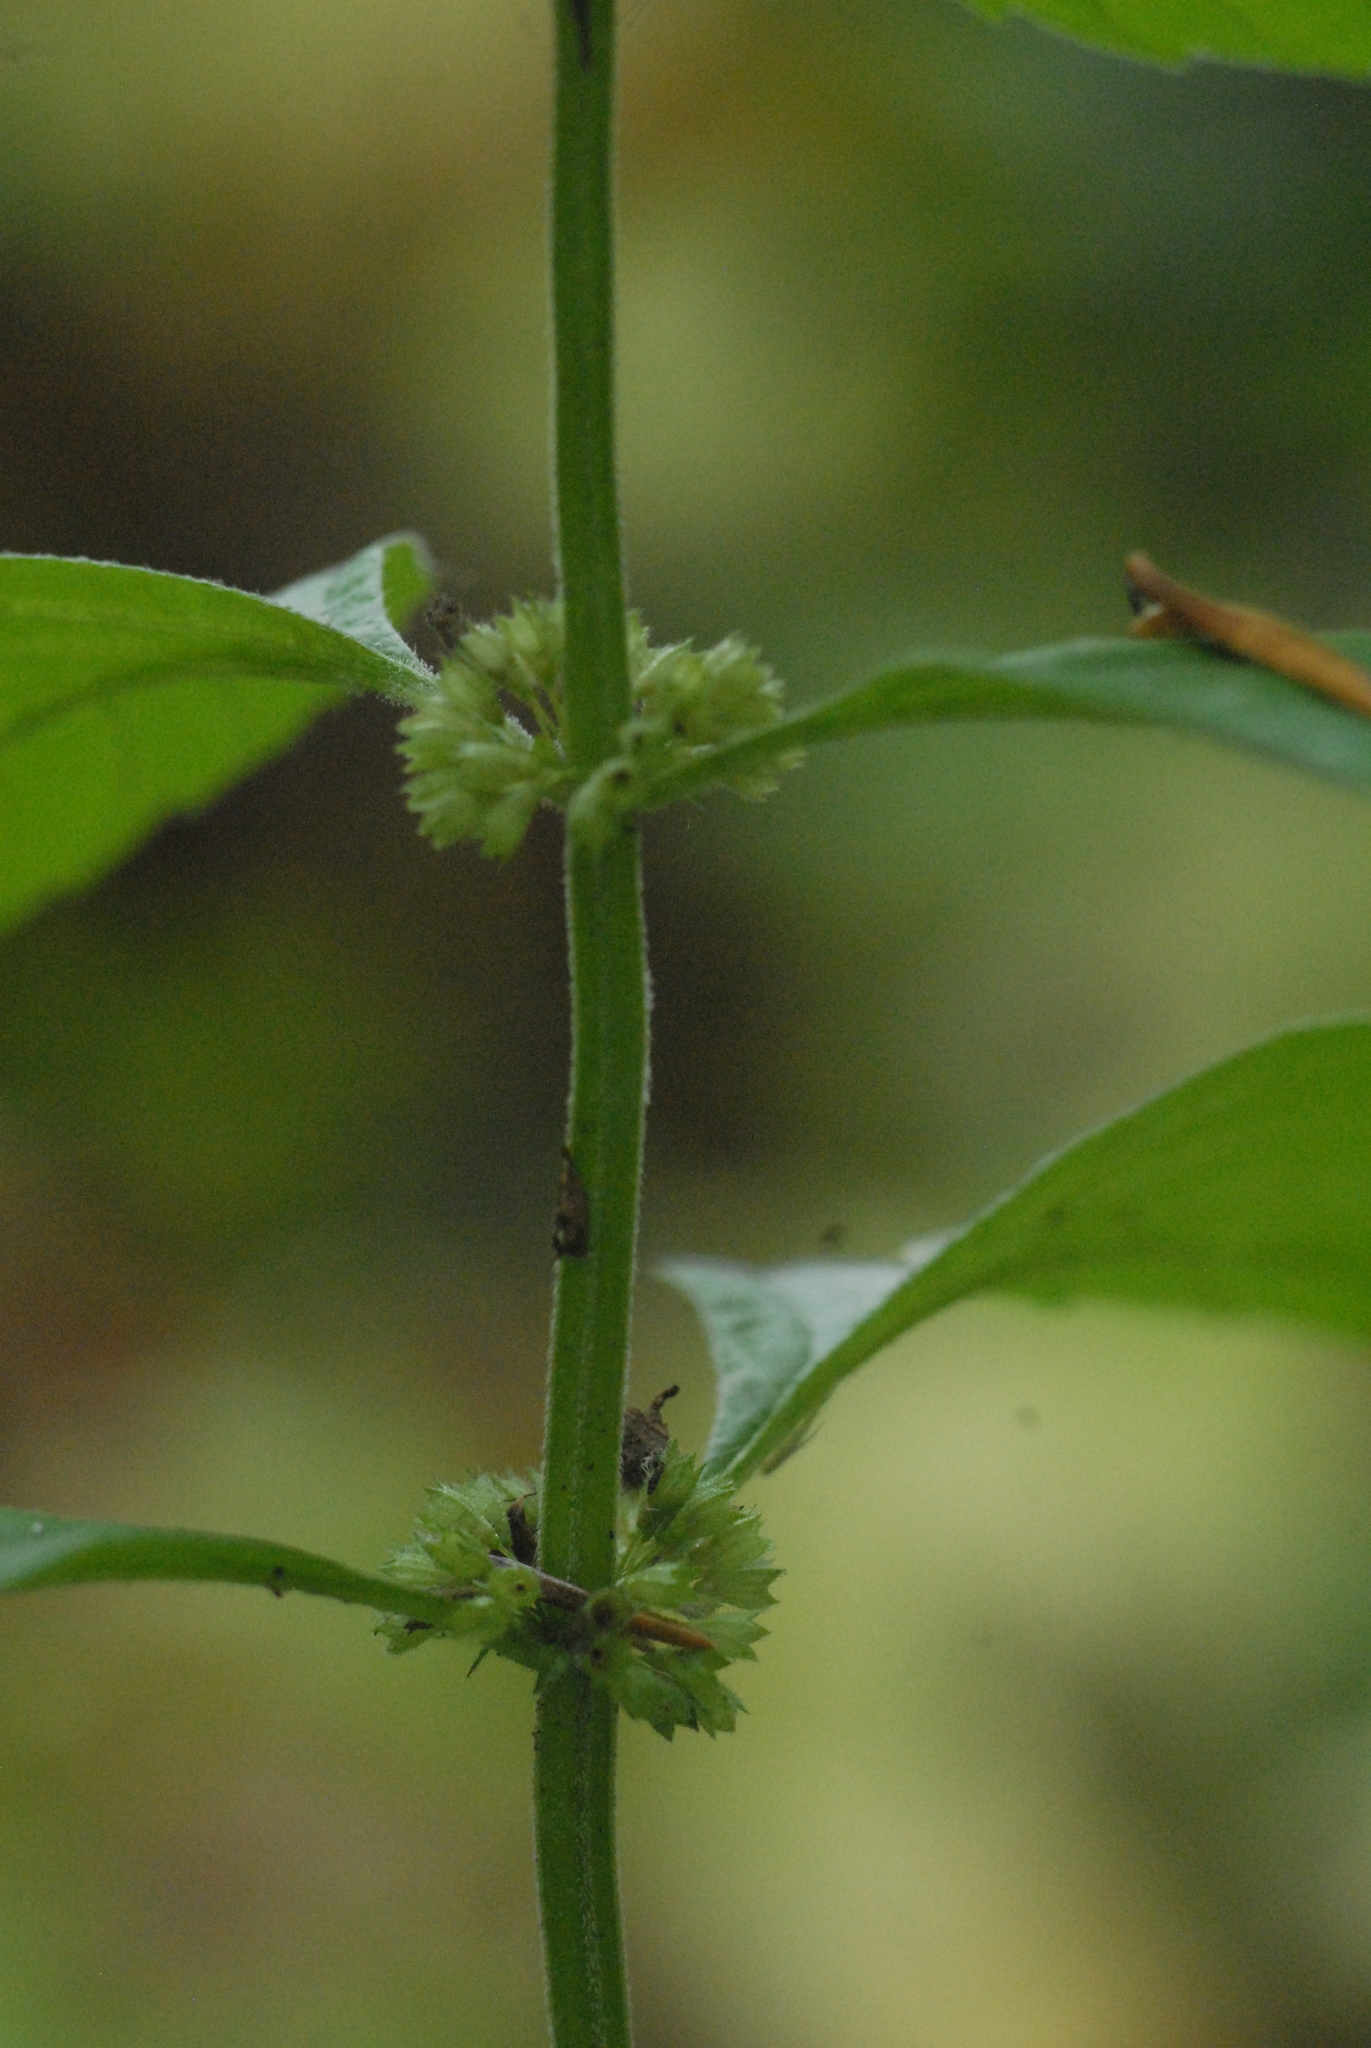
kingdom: Plantae
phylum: Tracheophyta
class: Magnoliopsida
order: Lamiales
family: Lamiaceae
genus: Lycopus
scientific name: Lycopus europaeus
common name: European bugleweed
